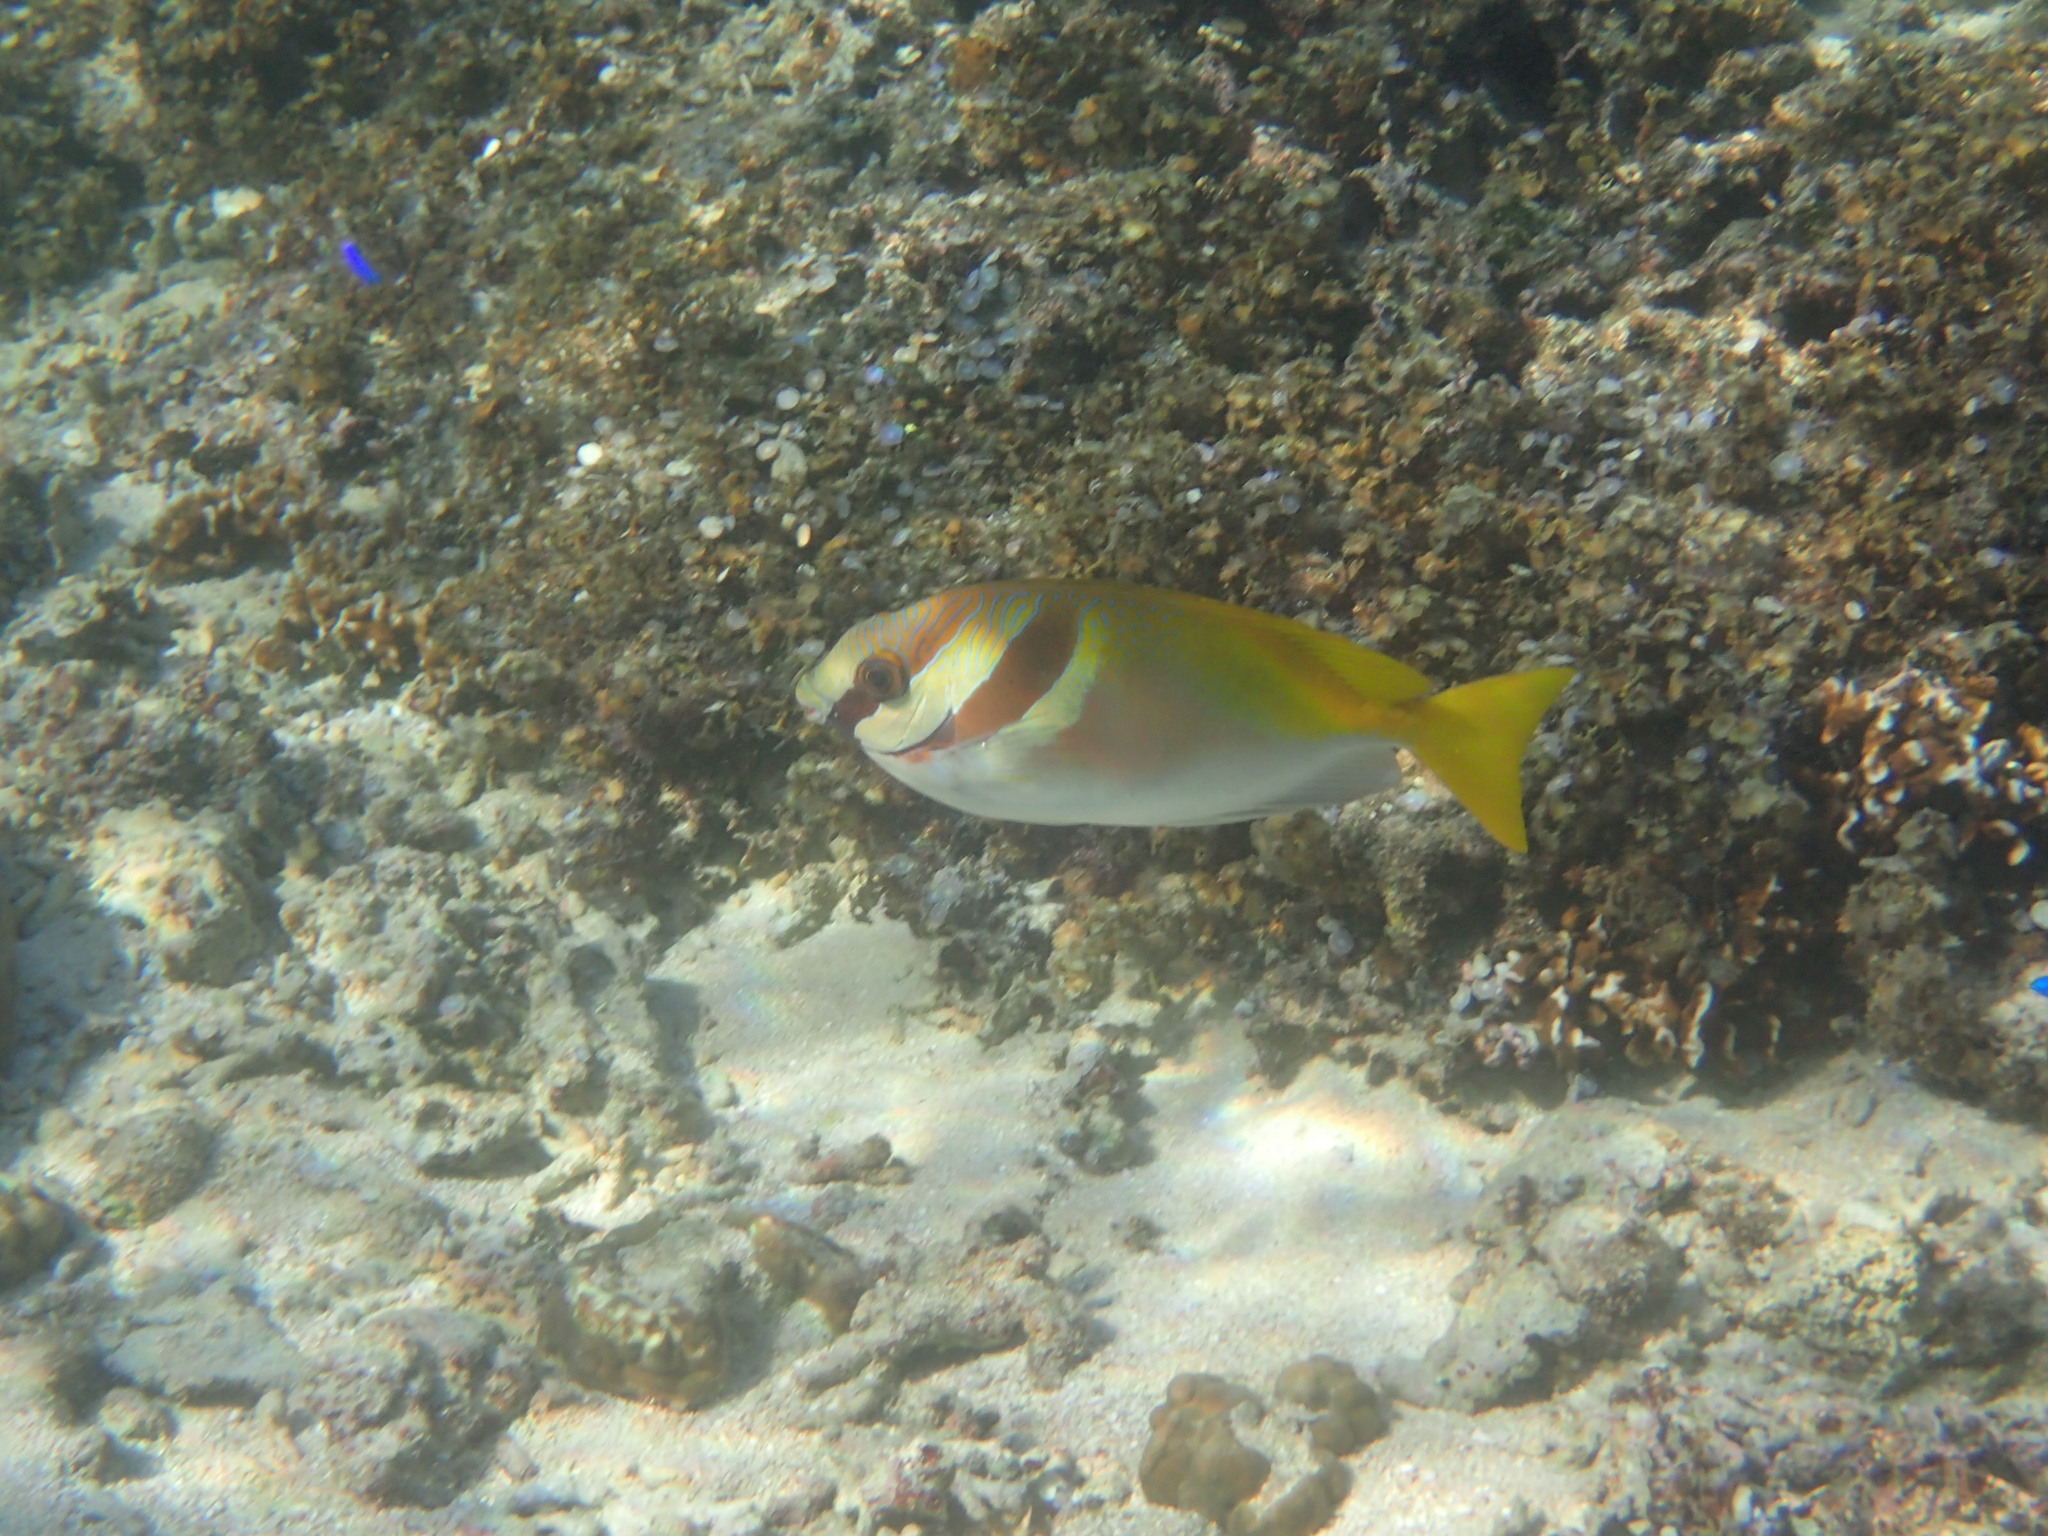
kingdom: Animalia
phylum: Chordata
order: Perciformes
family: Siganidae
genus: Siganus
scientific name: Siganus virgatus
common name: Barhead spinefoot
